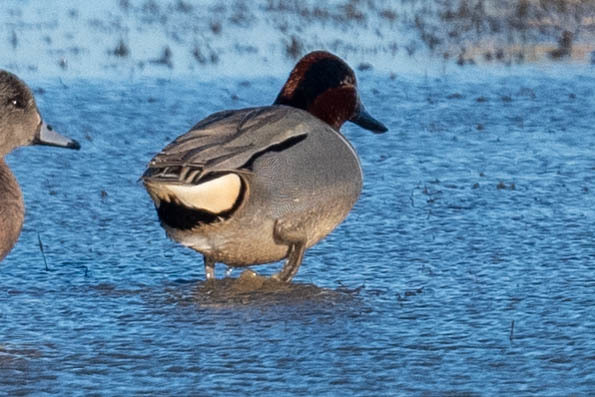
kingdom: Animalia
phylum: Chordata
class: Aves
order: Anseriformes
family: Anatidae
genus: Anas
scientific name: Anas crecca
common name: Eurasian teal
